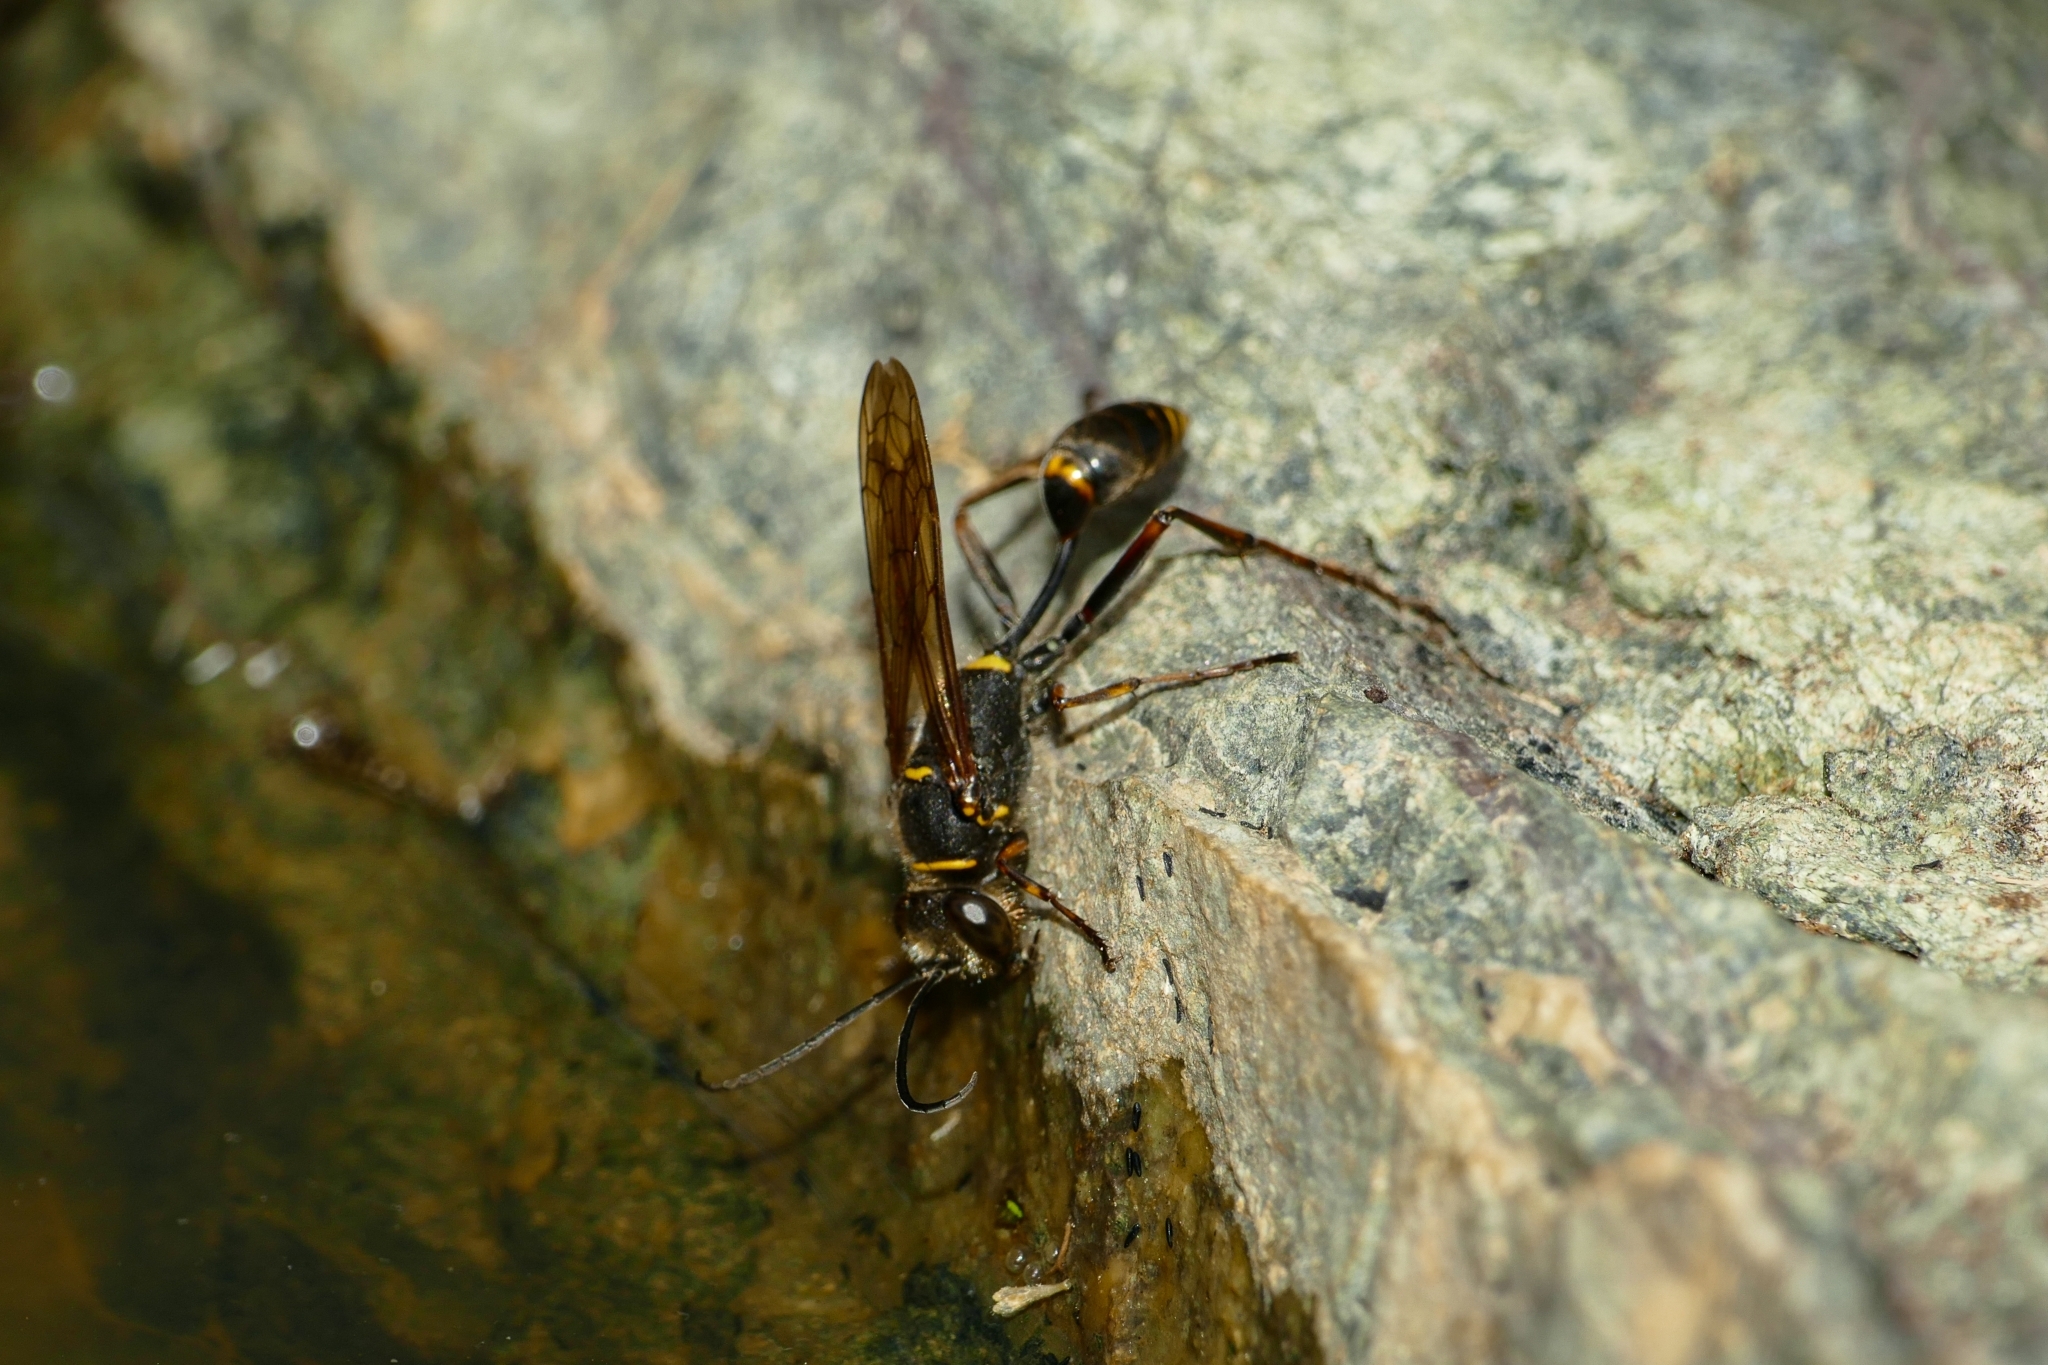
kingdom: Animalia
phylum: Arthropoda
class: Insecta
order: Hymenoptera
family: Sphecidae
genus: Sceliphron
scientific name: Sceliphron curvatum
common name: Pèlopèe
